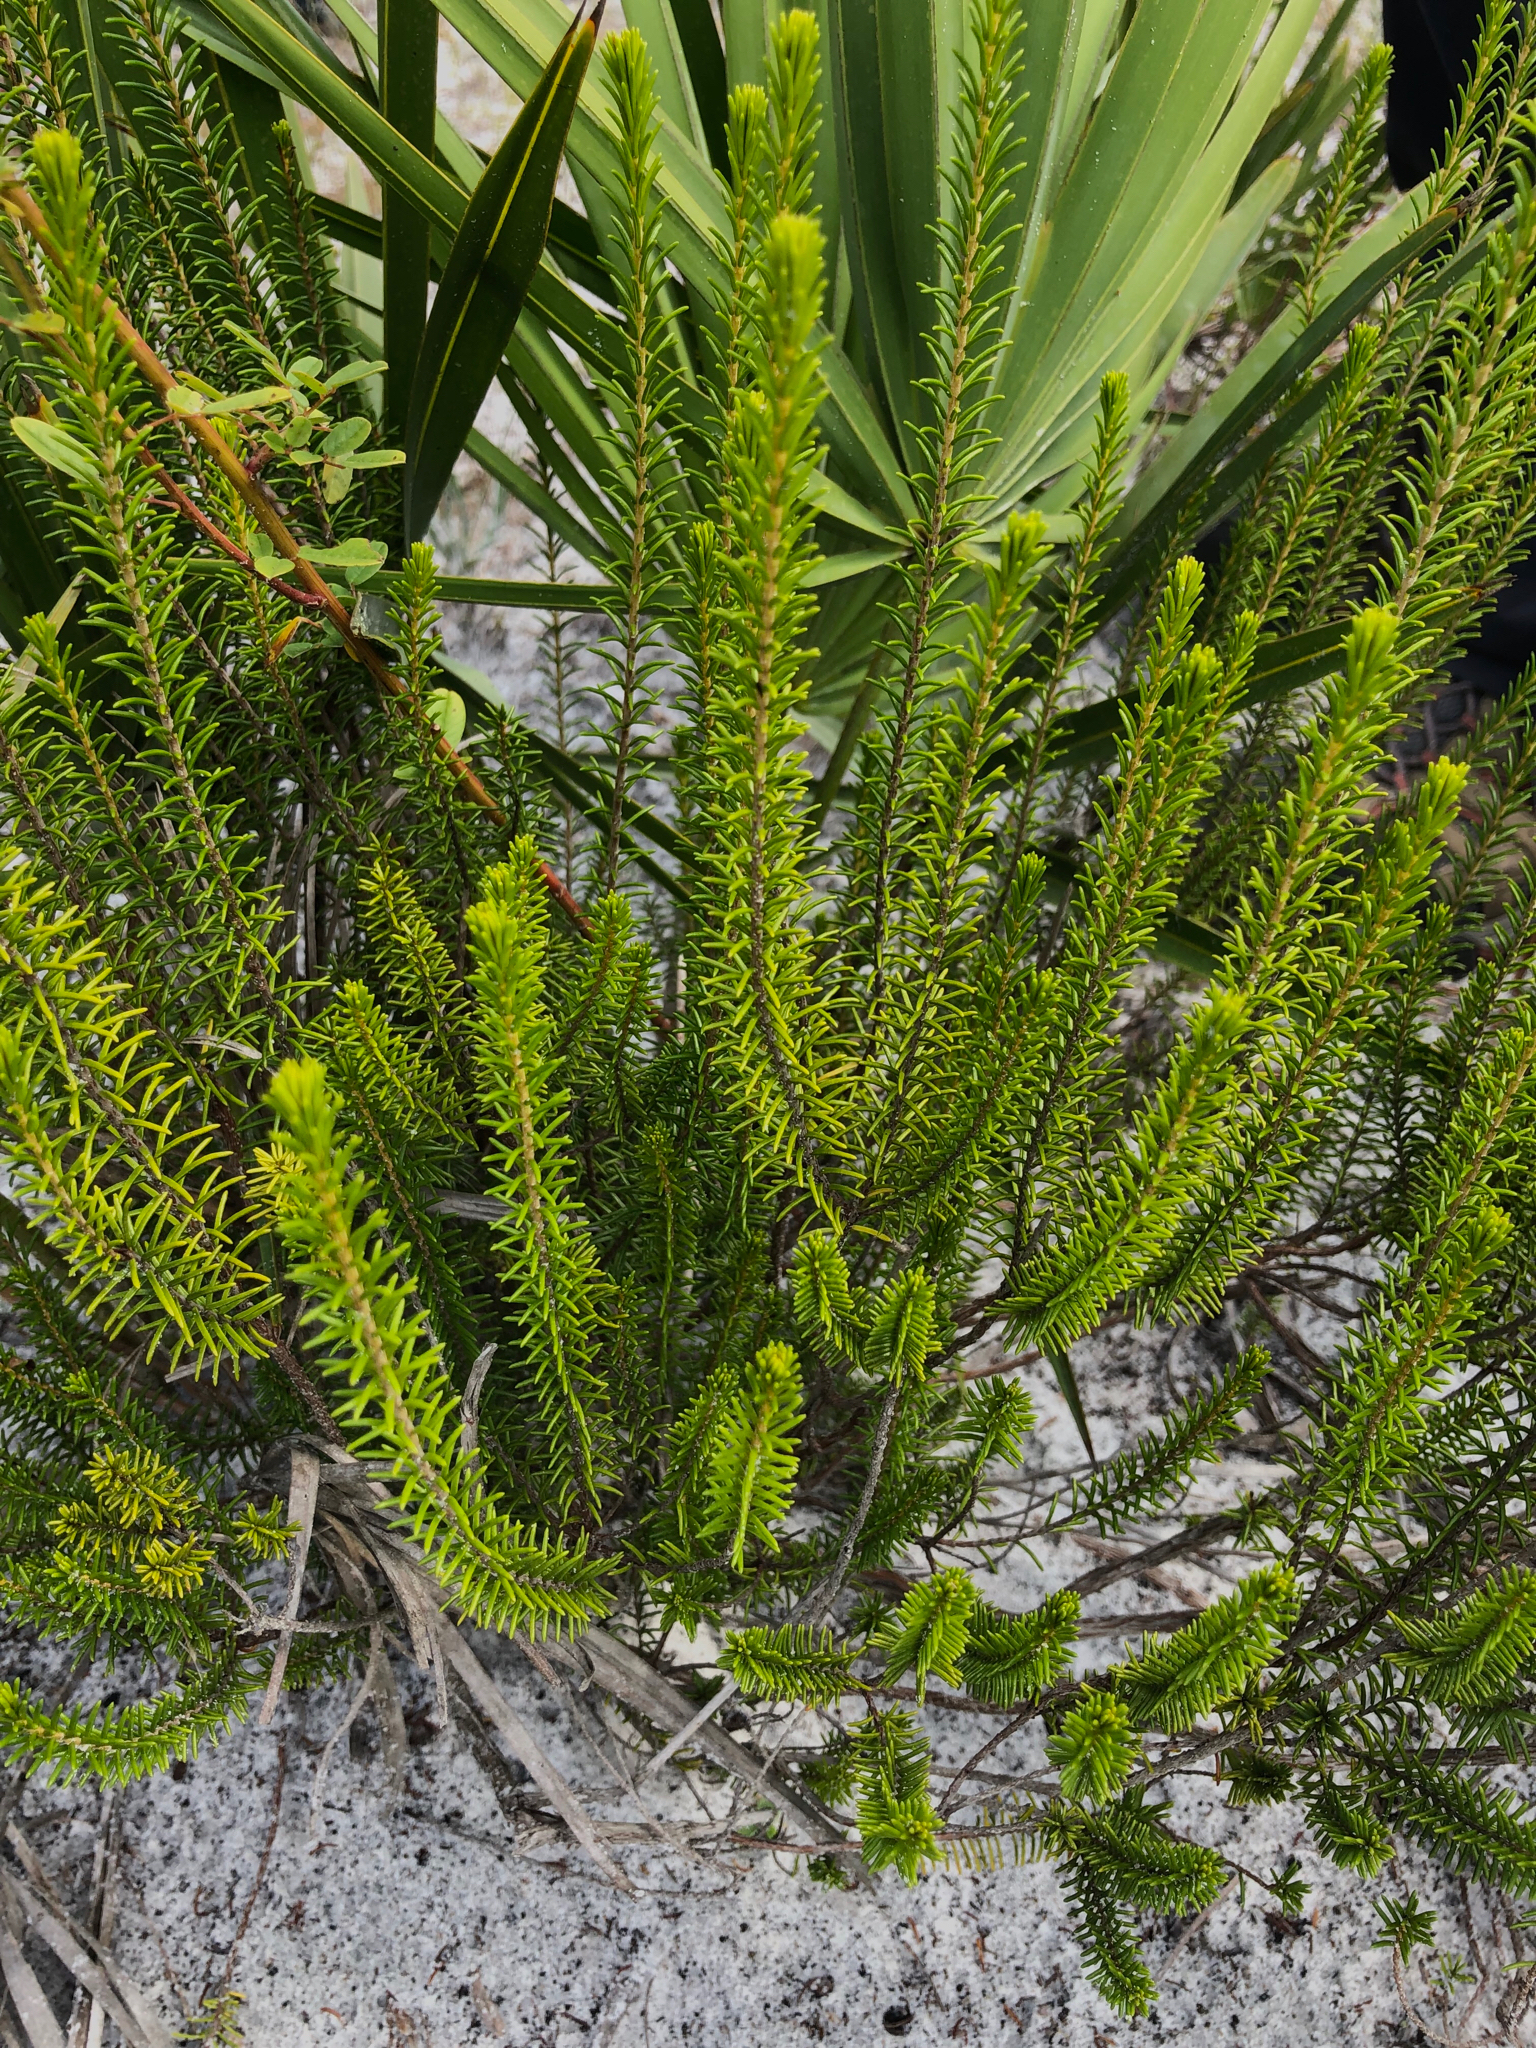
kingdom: Plantae
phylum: Tracheophyta
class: Magnoliopsida
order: Ericales
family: Ericaceae
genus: Ceratiola
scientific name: Ceratiola ericoides
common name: Sandhill-rosemary
